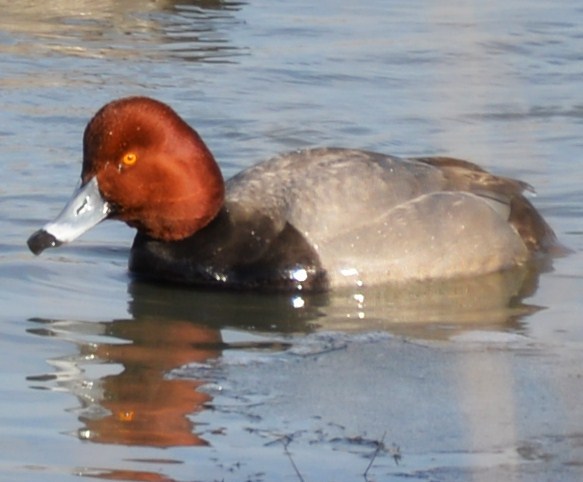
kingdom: Animalia
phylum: Chordata
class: Aves
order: Anseriformes
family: Anatidae
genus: Aythya
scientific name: Aythya americana
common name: Redhead
